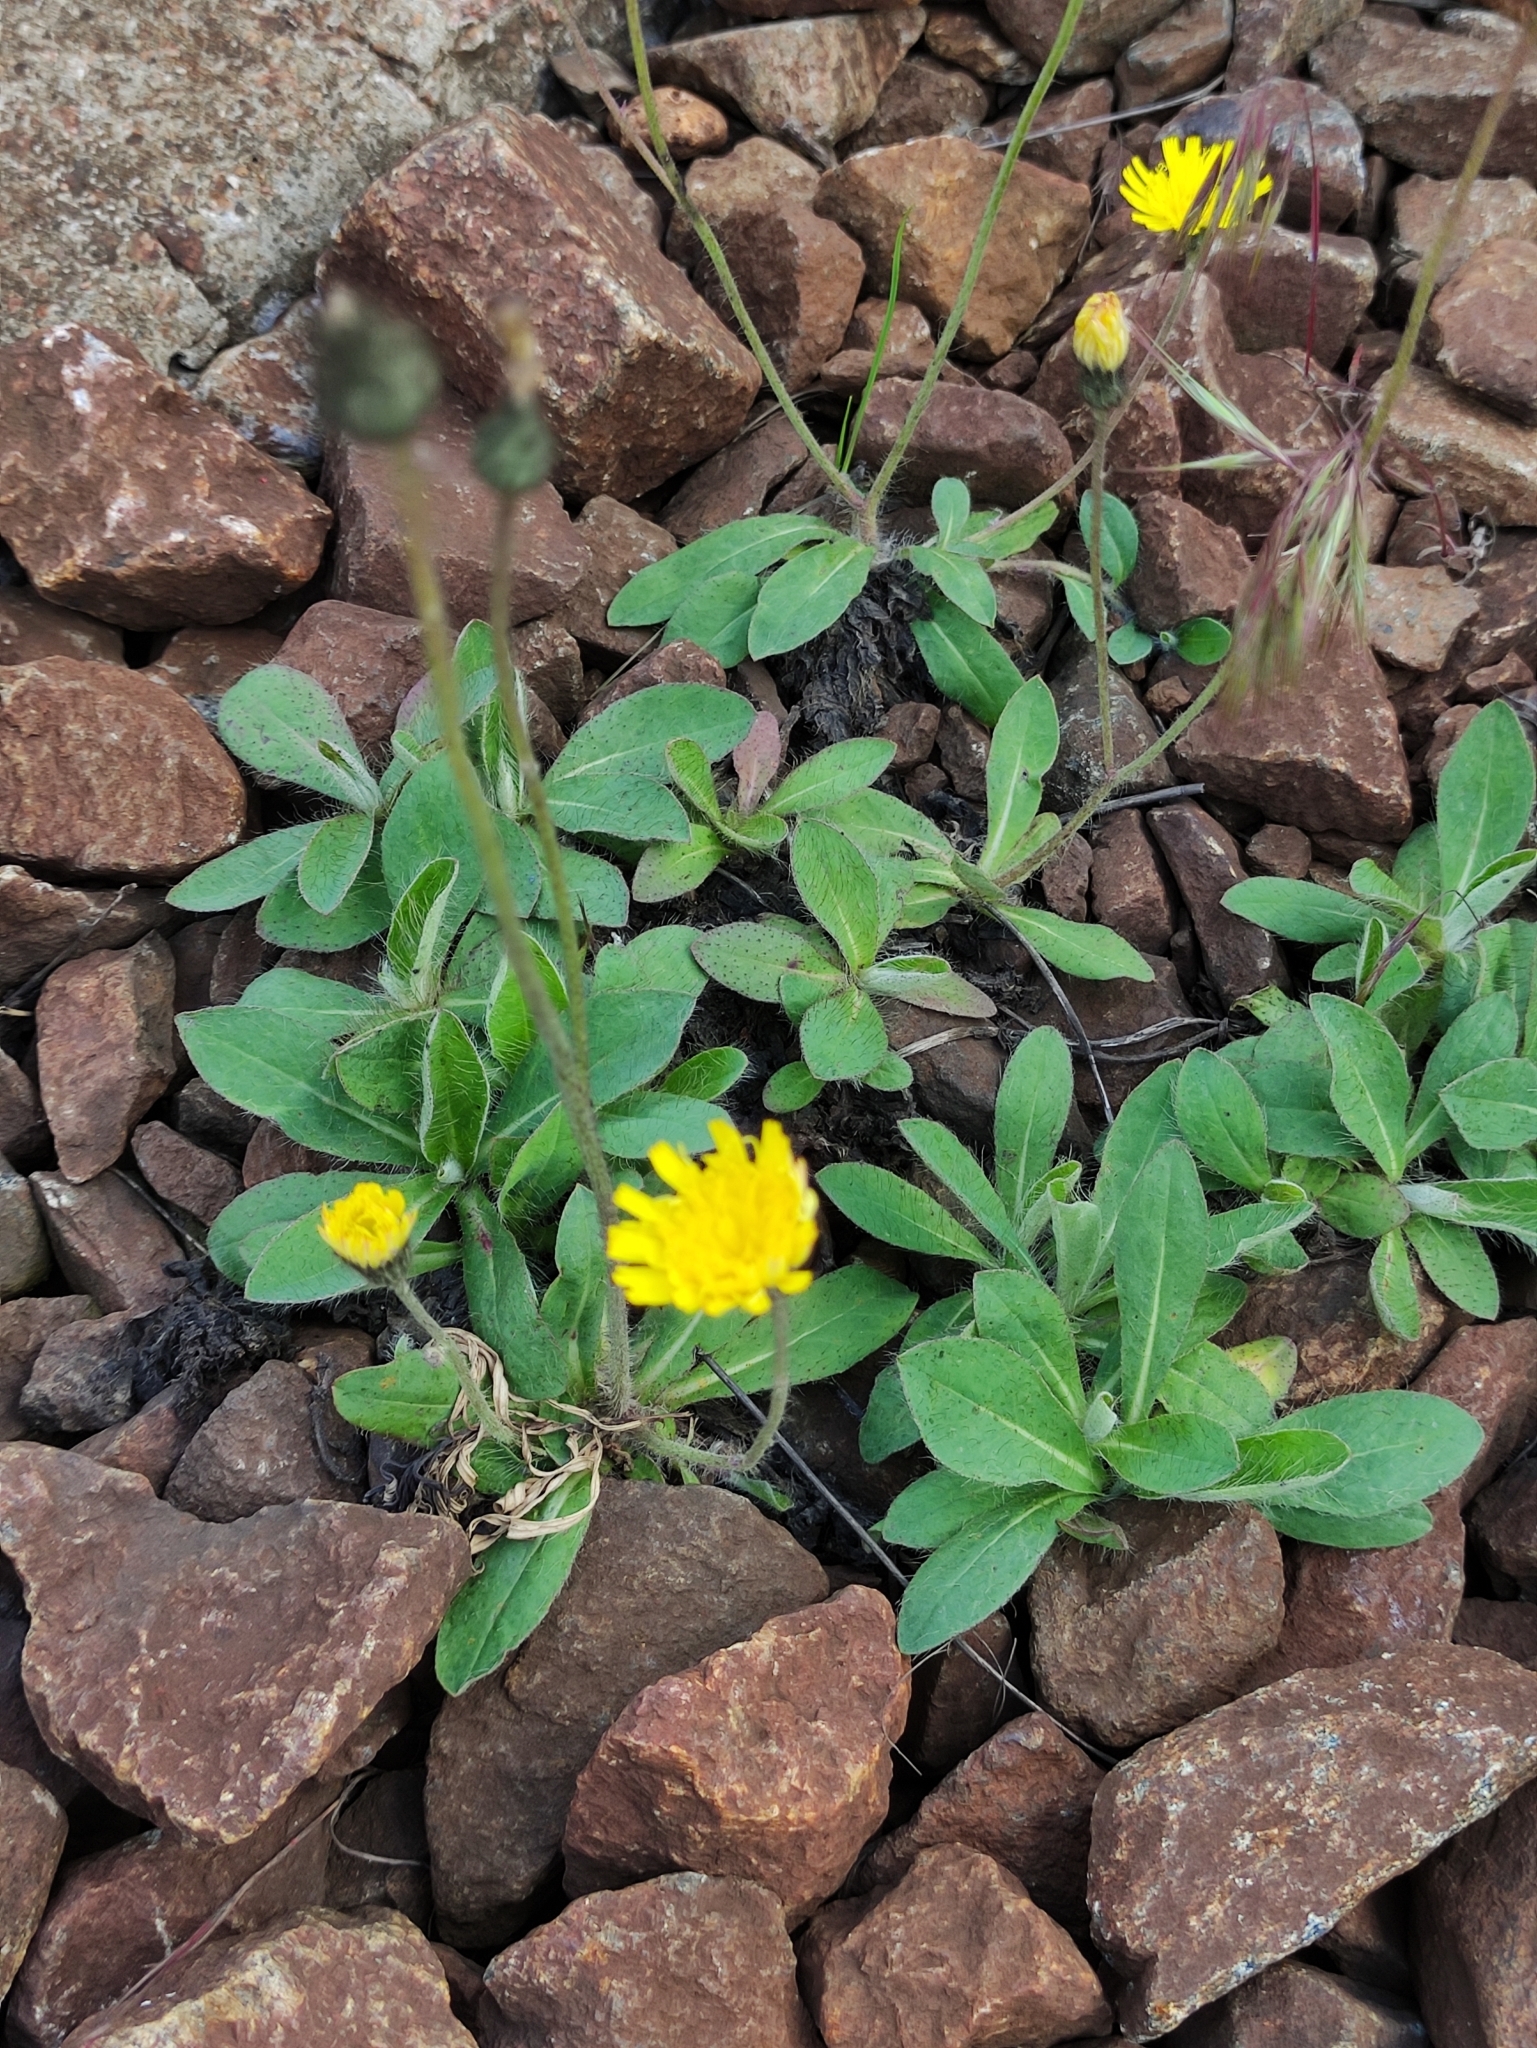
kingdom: Plantae
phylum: Tracheophyta
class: Magnoliopsida
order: Asterales
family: Asteraceae
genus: Pilosella
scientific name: Pilosella officinarum
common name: Mouse-ear hawkweed
